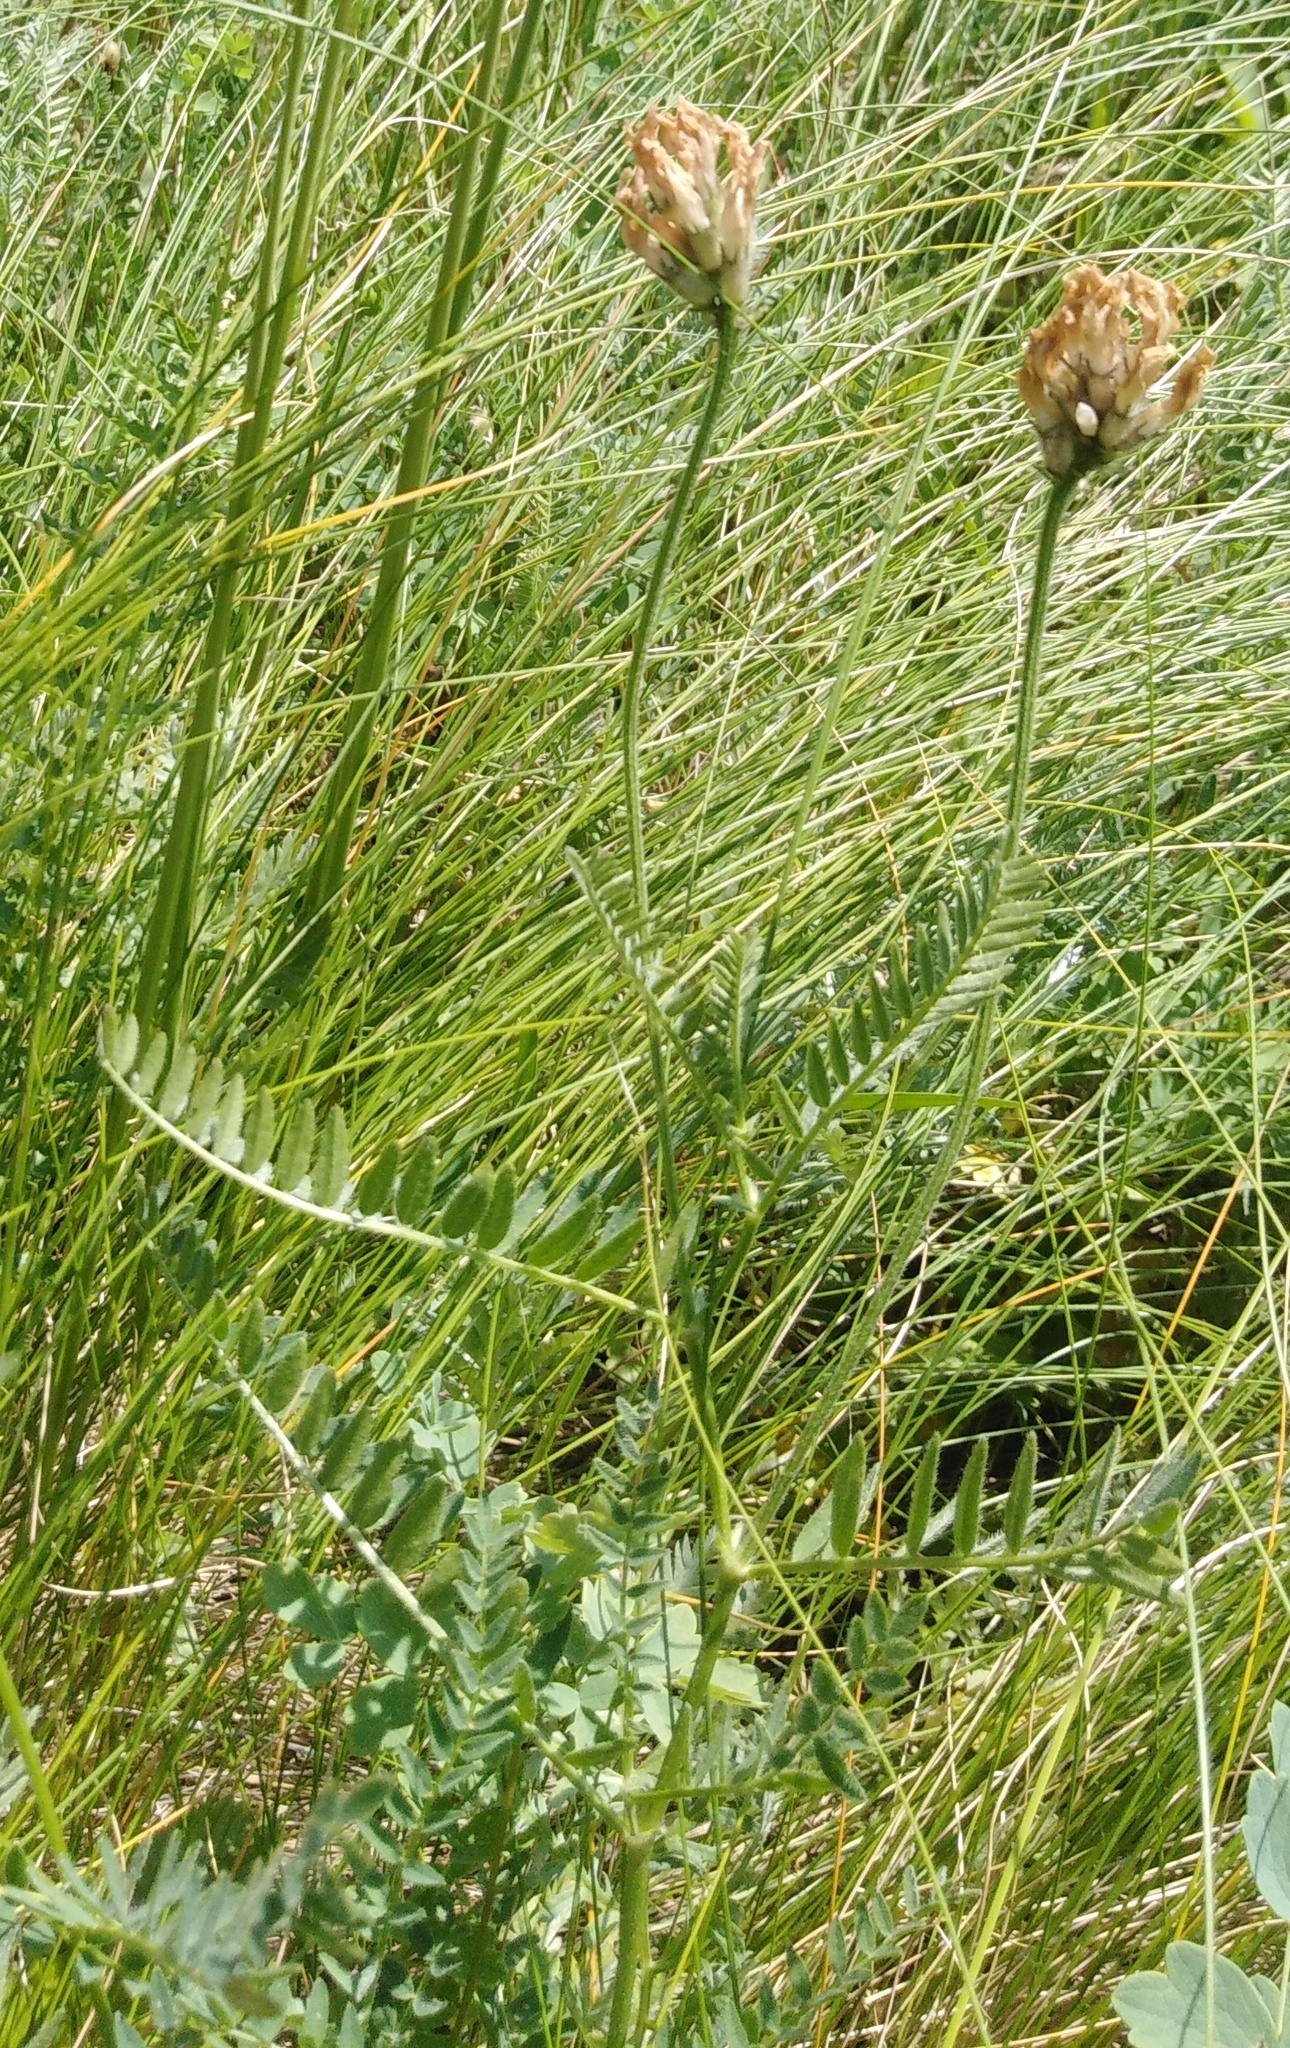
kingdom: Plantae
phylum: Tracheophyta
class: Magnoliopsida
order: Fabales
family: Fabaceae
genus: Astragalus
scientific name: Astragalus danicus
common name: Purple milk-vetch
